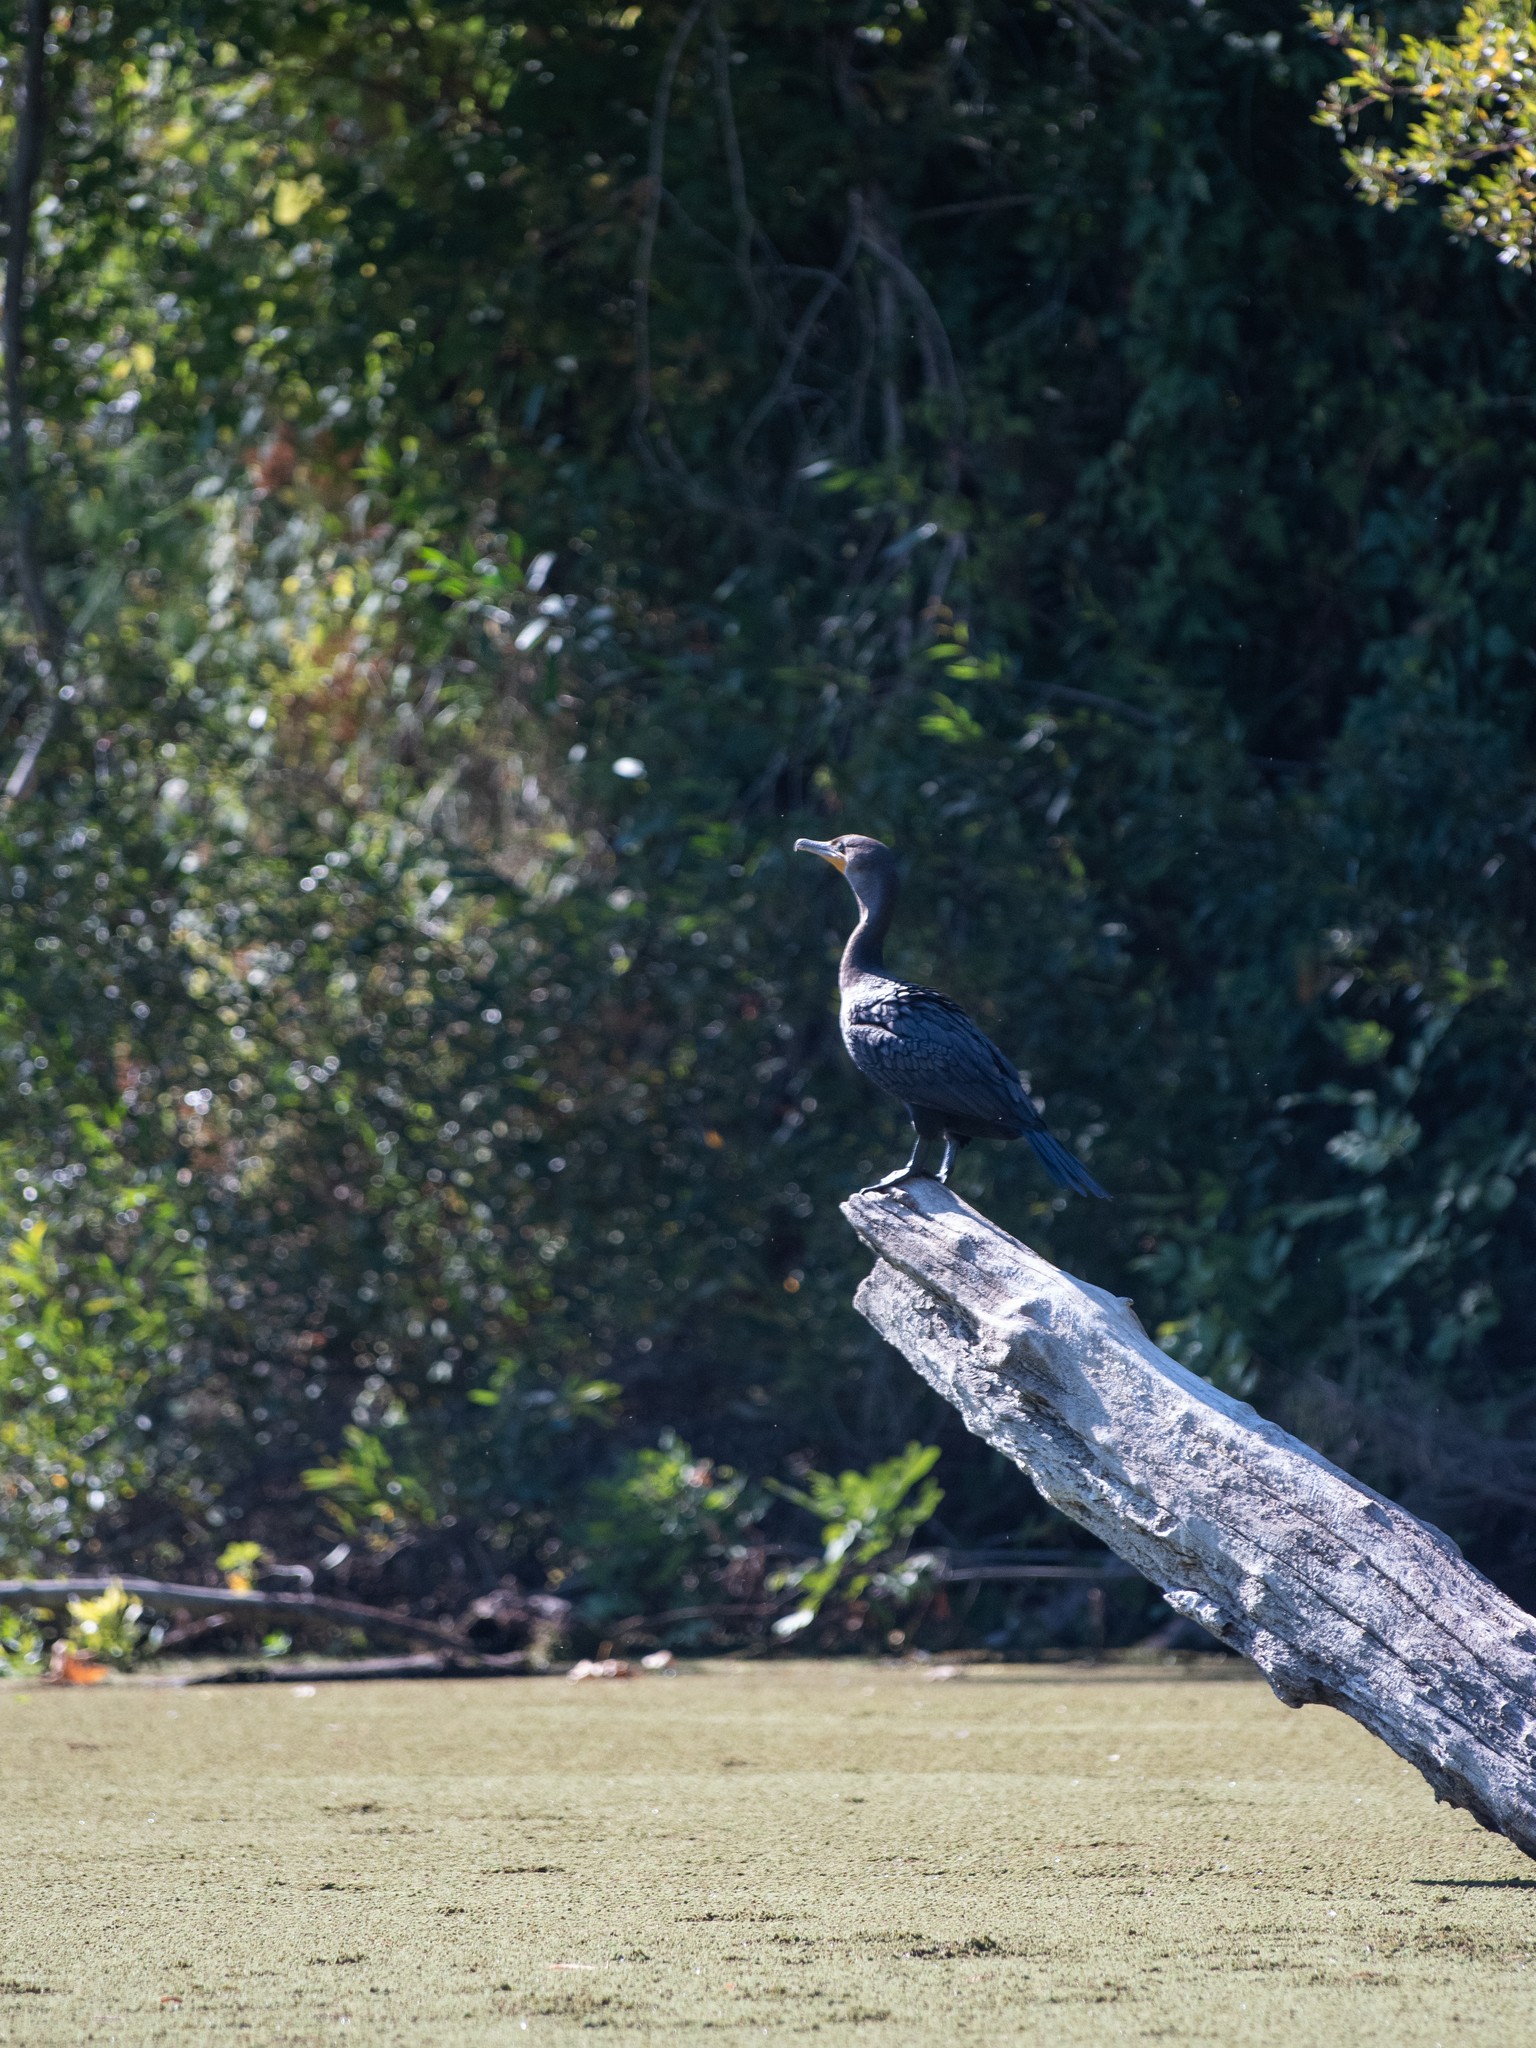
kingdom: Animalia
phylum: Chordata
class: Aves
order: Suliformes
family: Phalacrocoracidae
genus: Phalacrocorax
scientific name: Phalacrocorax auritus
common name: Double-crested cormorant
